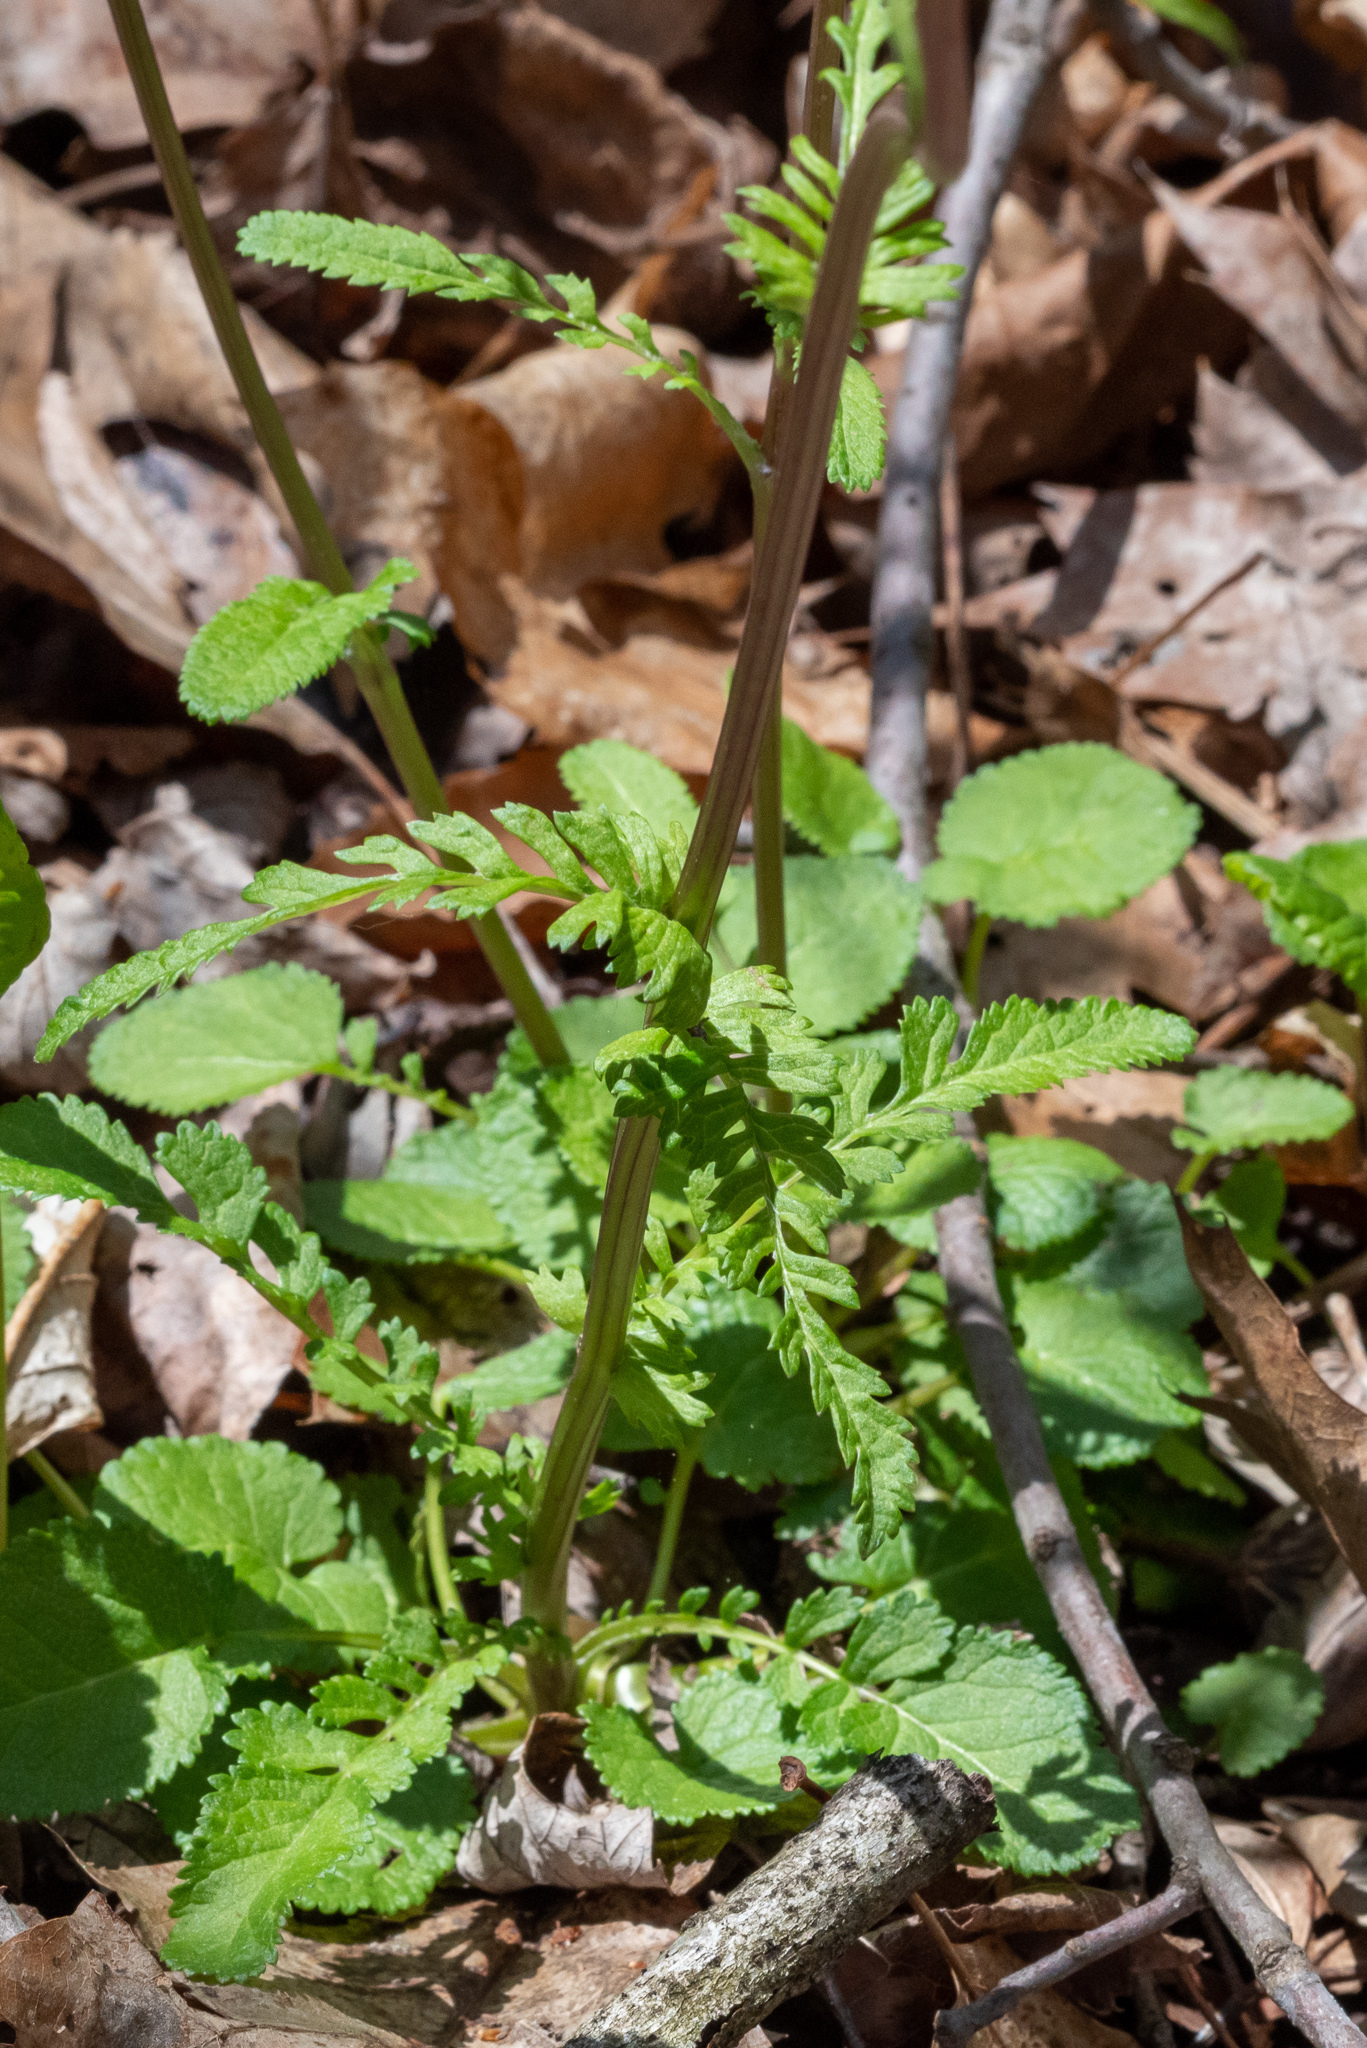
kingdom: Plantae
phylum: Tracheophyta
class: Magnoliopsida
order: Asterales
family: Asteraceae
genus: Packera
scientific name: Packera aurea
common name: Golden groundsel
